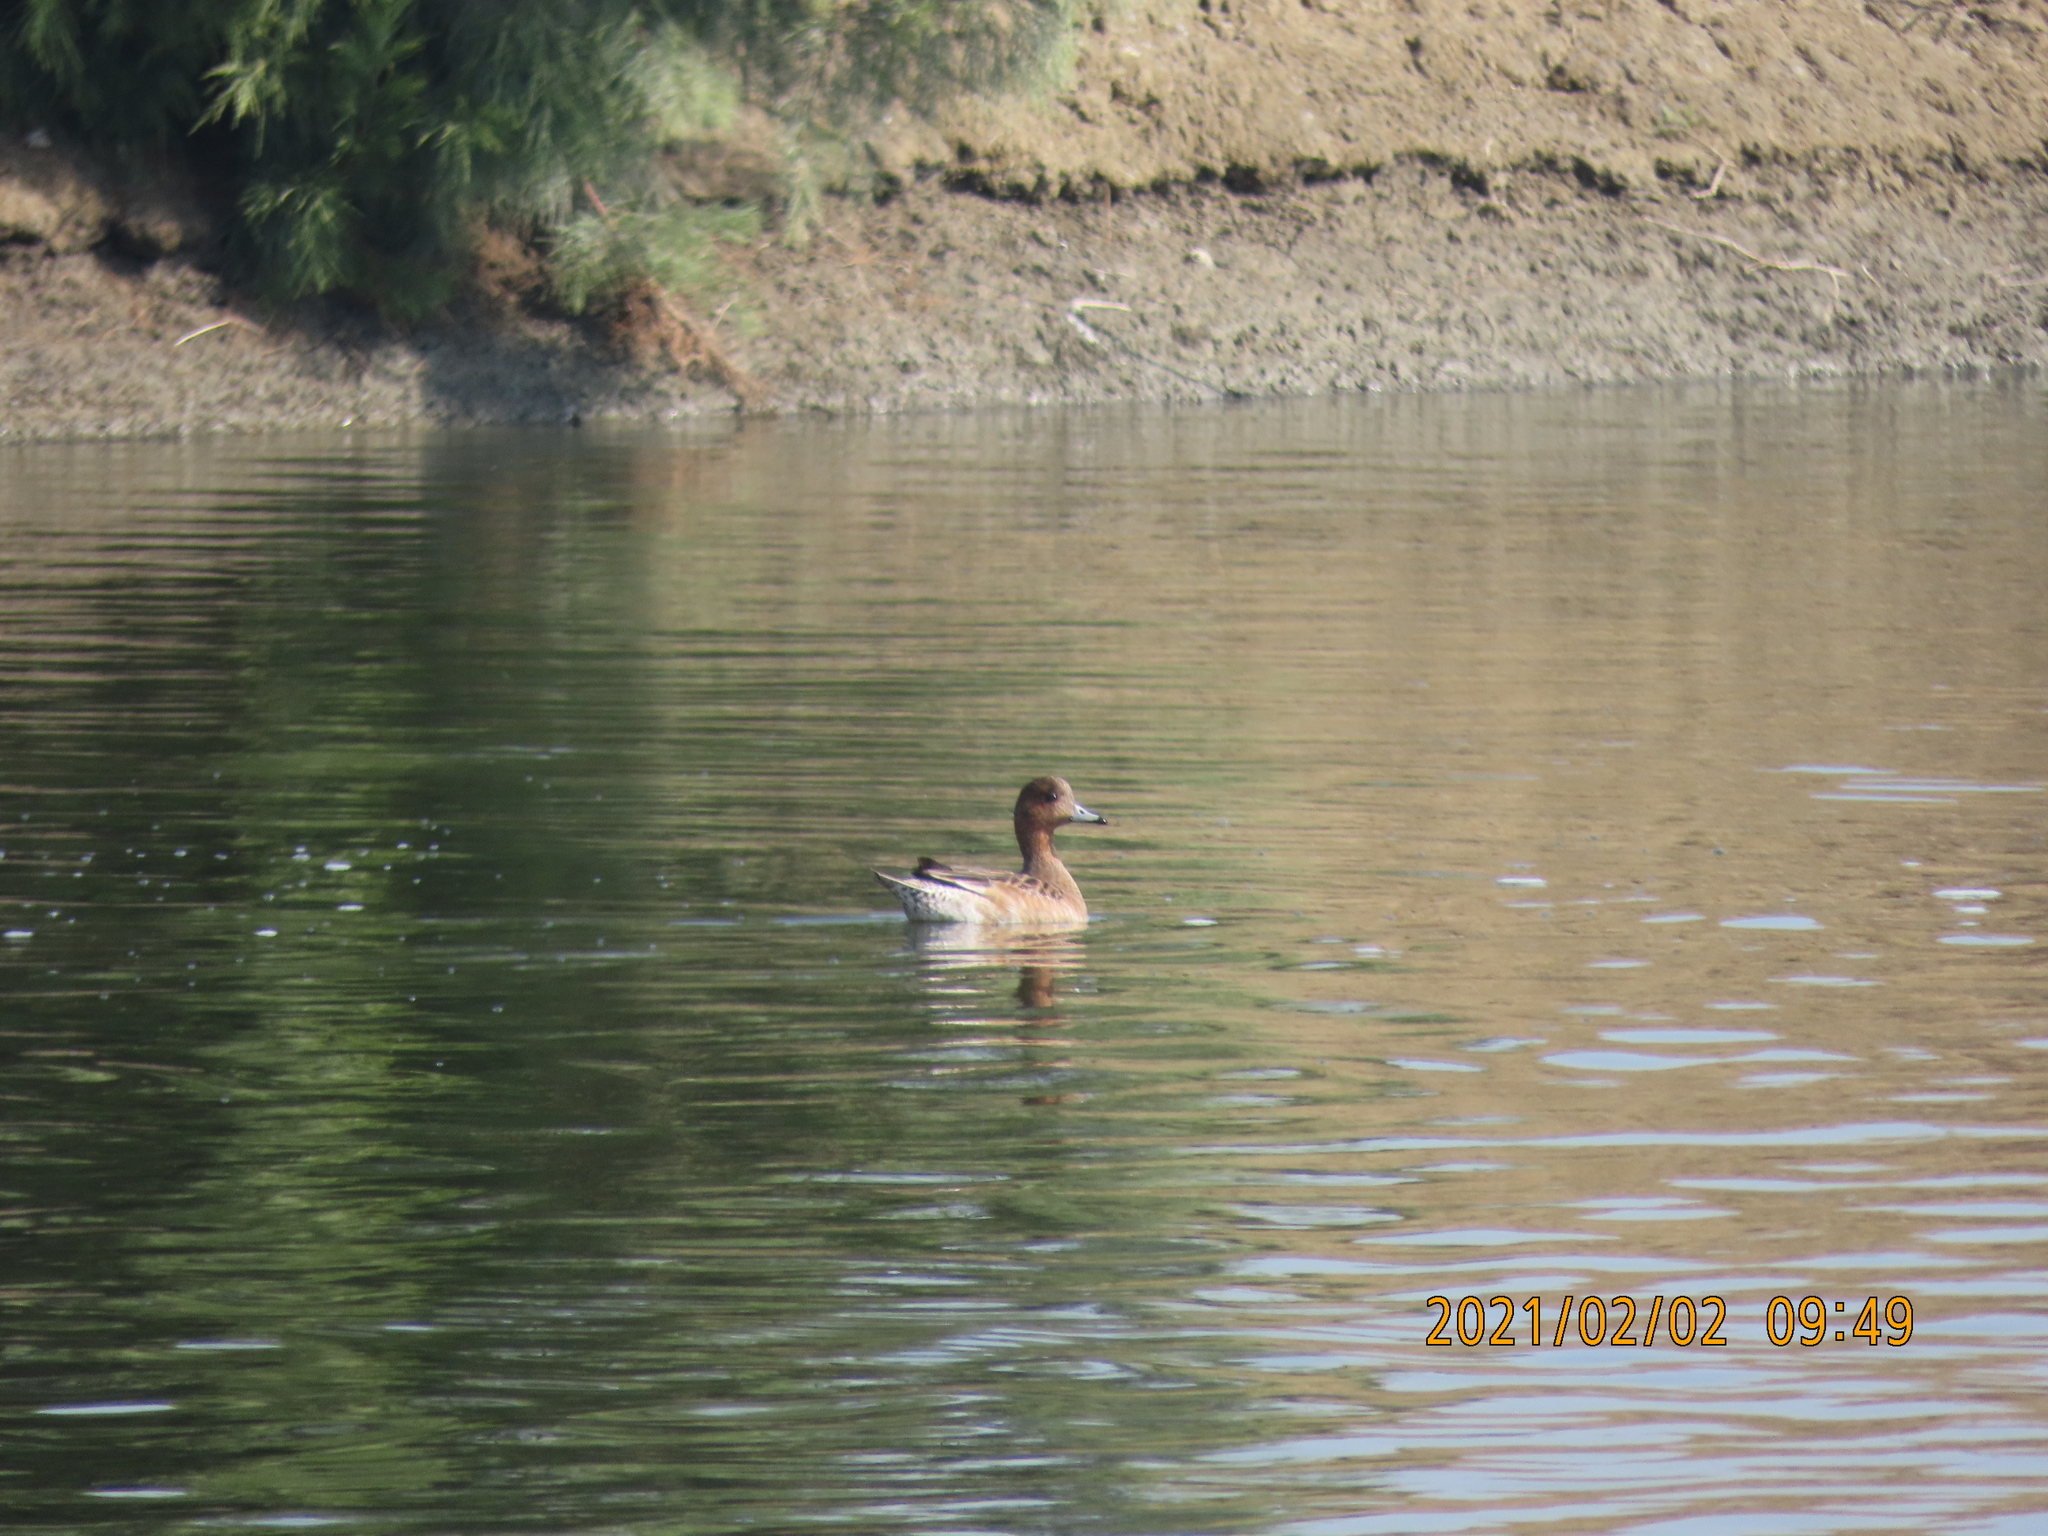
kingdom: Animalia
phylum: Chordata
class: Aves
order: Anseriformes
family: Anatidae
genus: Mareca
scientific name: Mareca penelope
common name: Eurasian wigeon
